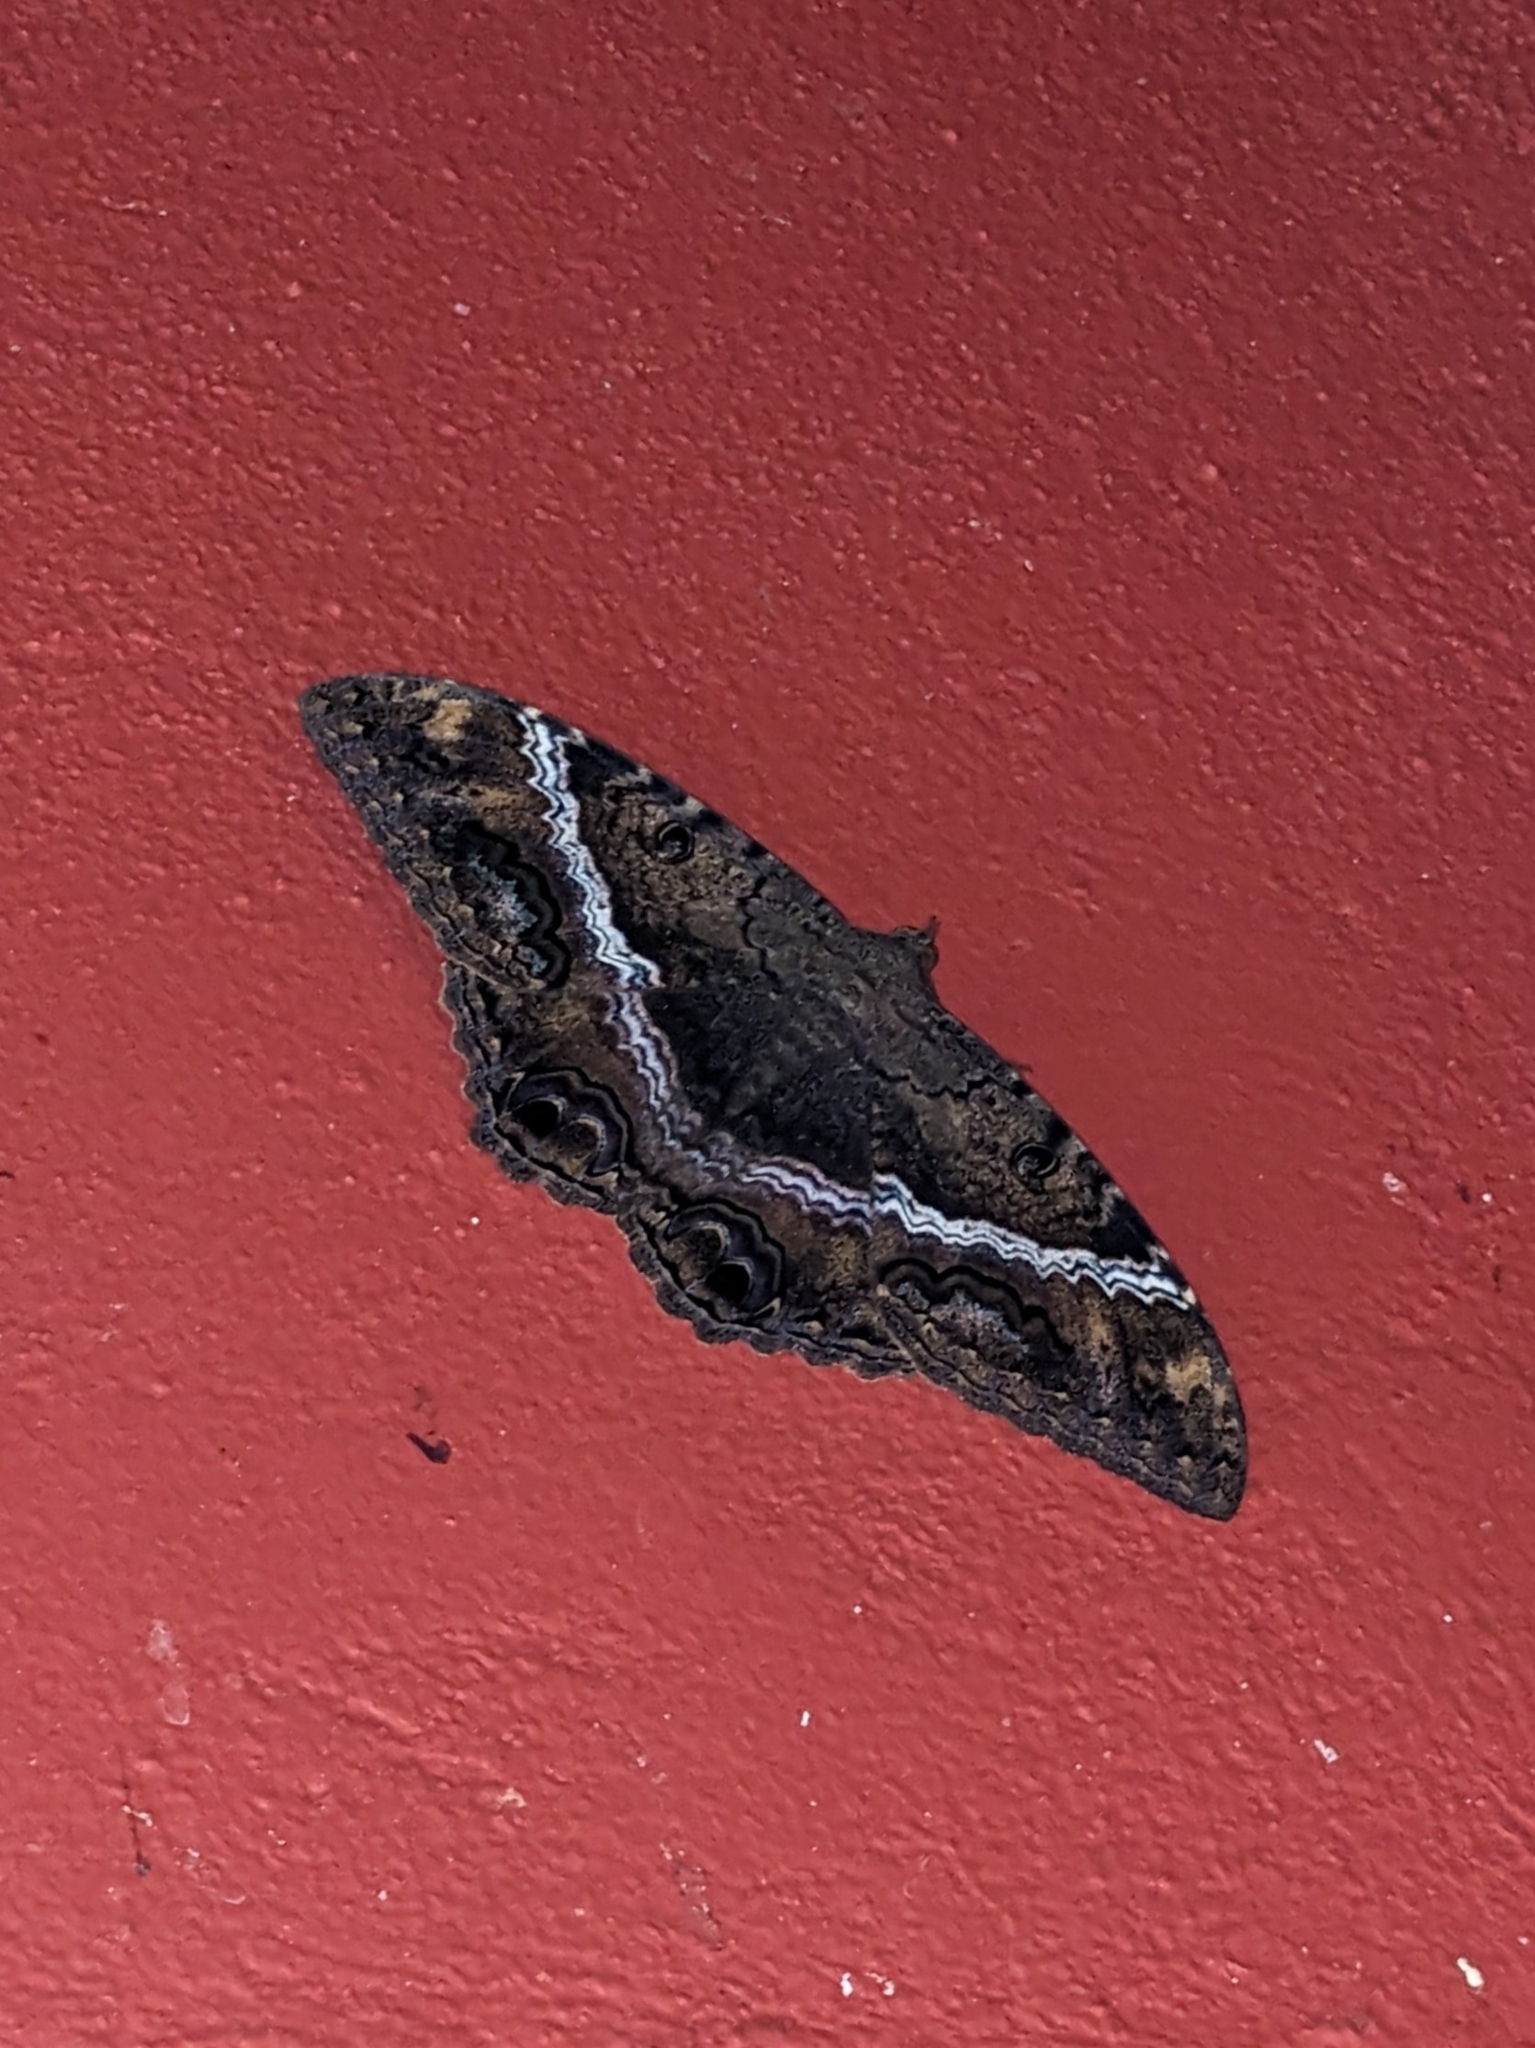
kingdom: Animalia
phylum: Arthropoda
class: Insecta
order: Lepidoptera
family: Erebidae
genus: Ascalapha
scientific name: Ascalapha odorata
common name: Black witch
